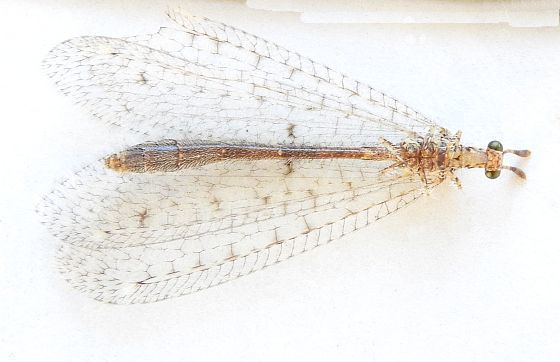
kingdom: Animalia
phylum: Arthropoda
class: Insecta
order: Neuroptera
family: Myrmeleontidae
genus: Menkeleon
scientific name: Menkeleon bellulus
